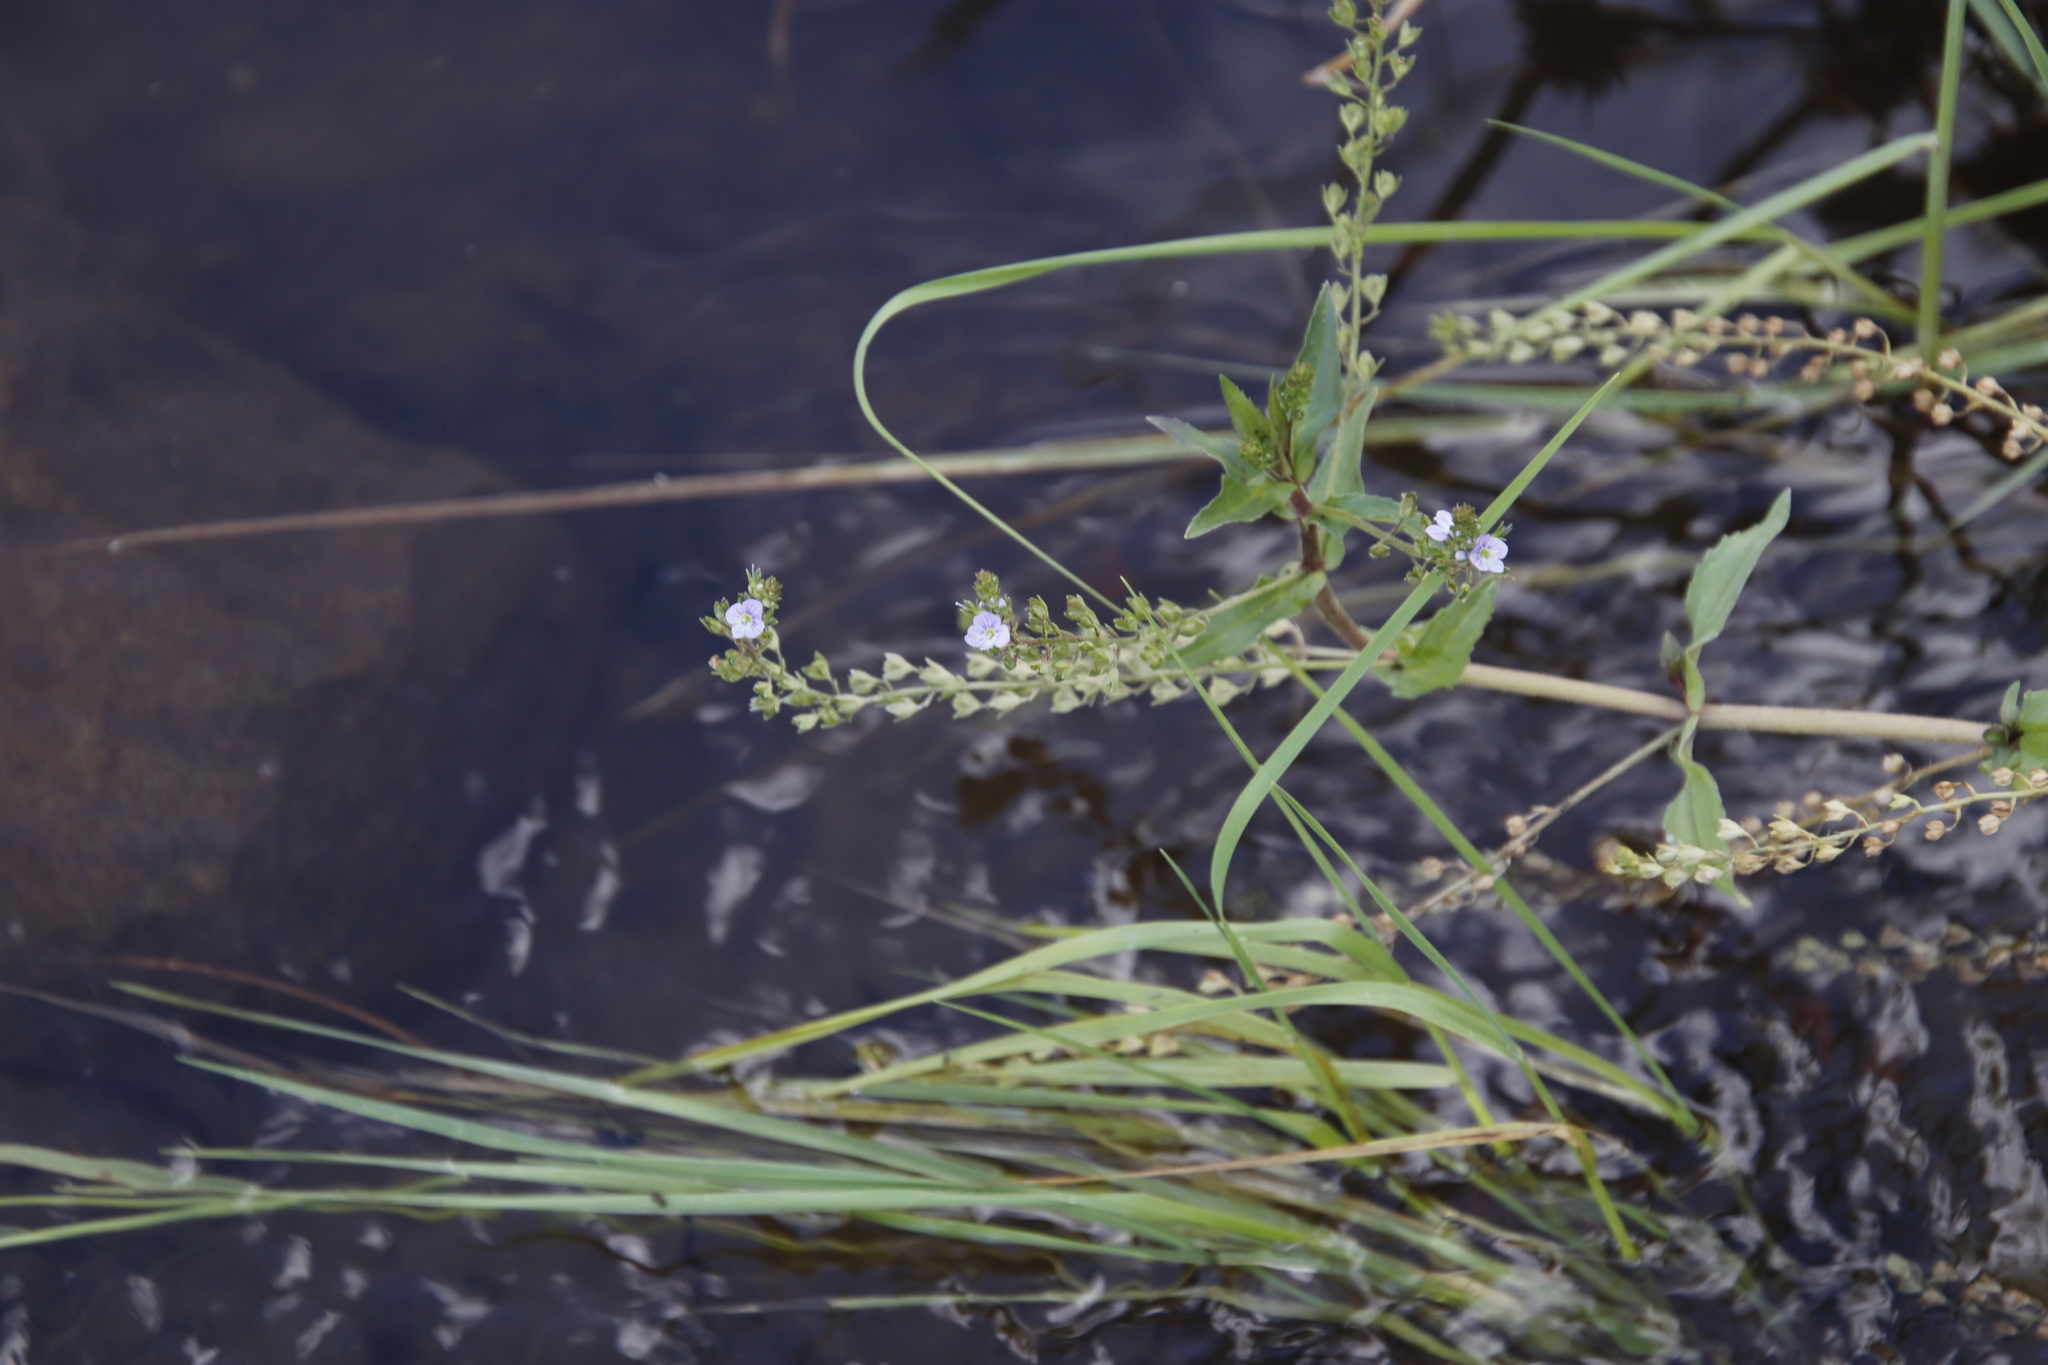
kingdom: Plantae
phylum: Tracheophyta
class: Magnoliopsida
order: Lamiales
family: Plantaginaceae
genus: Veronica
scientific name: Veronica anagallis-aquatica
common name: Water speedwell
